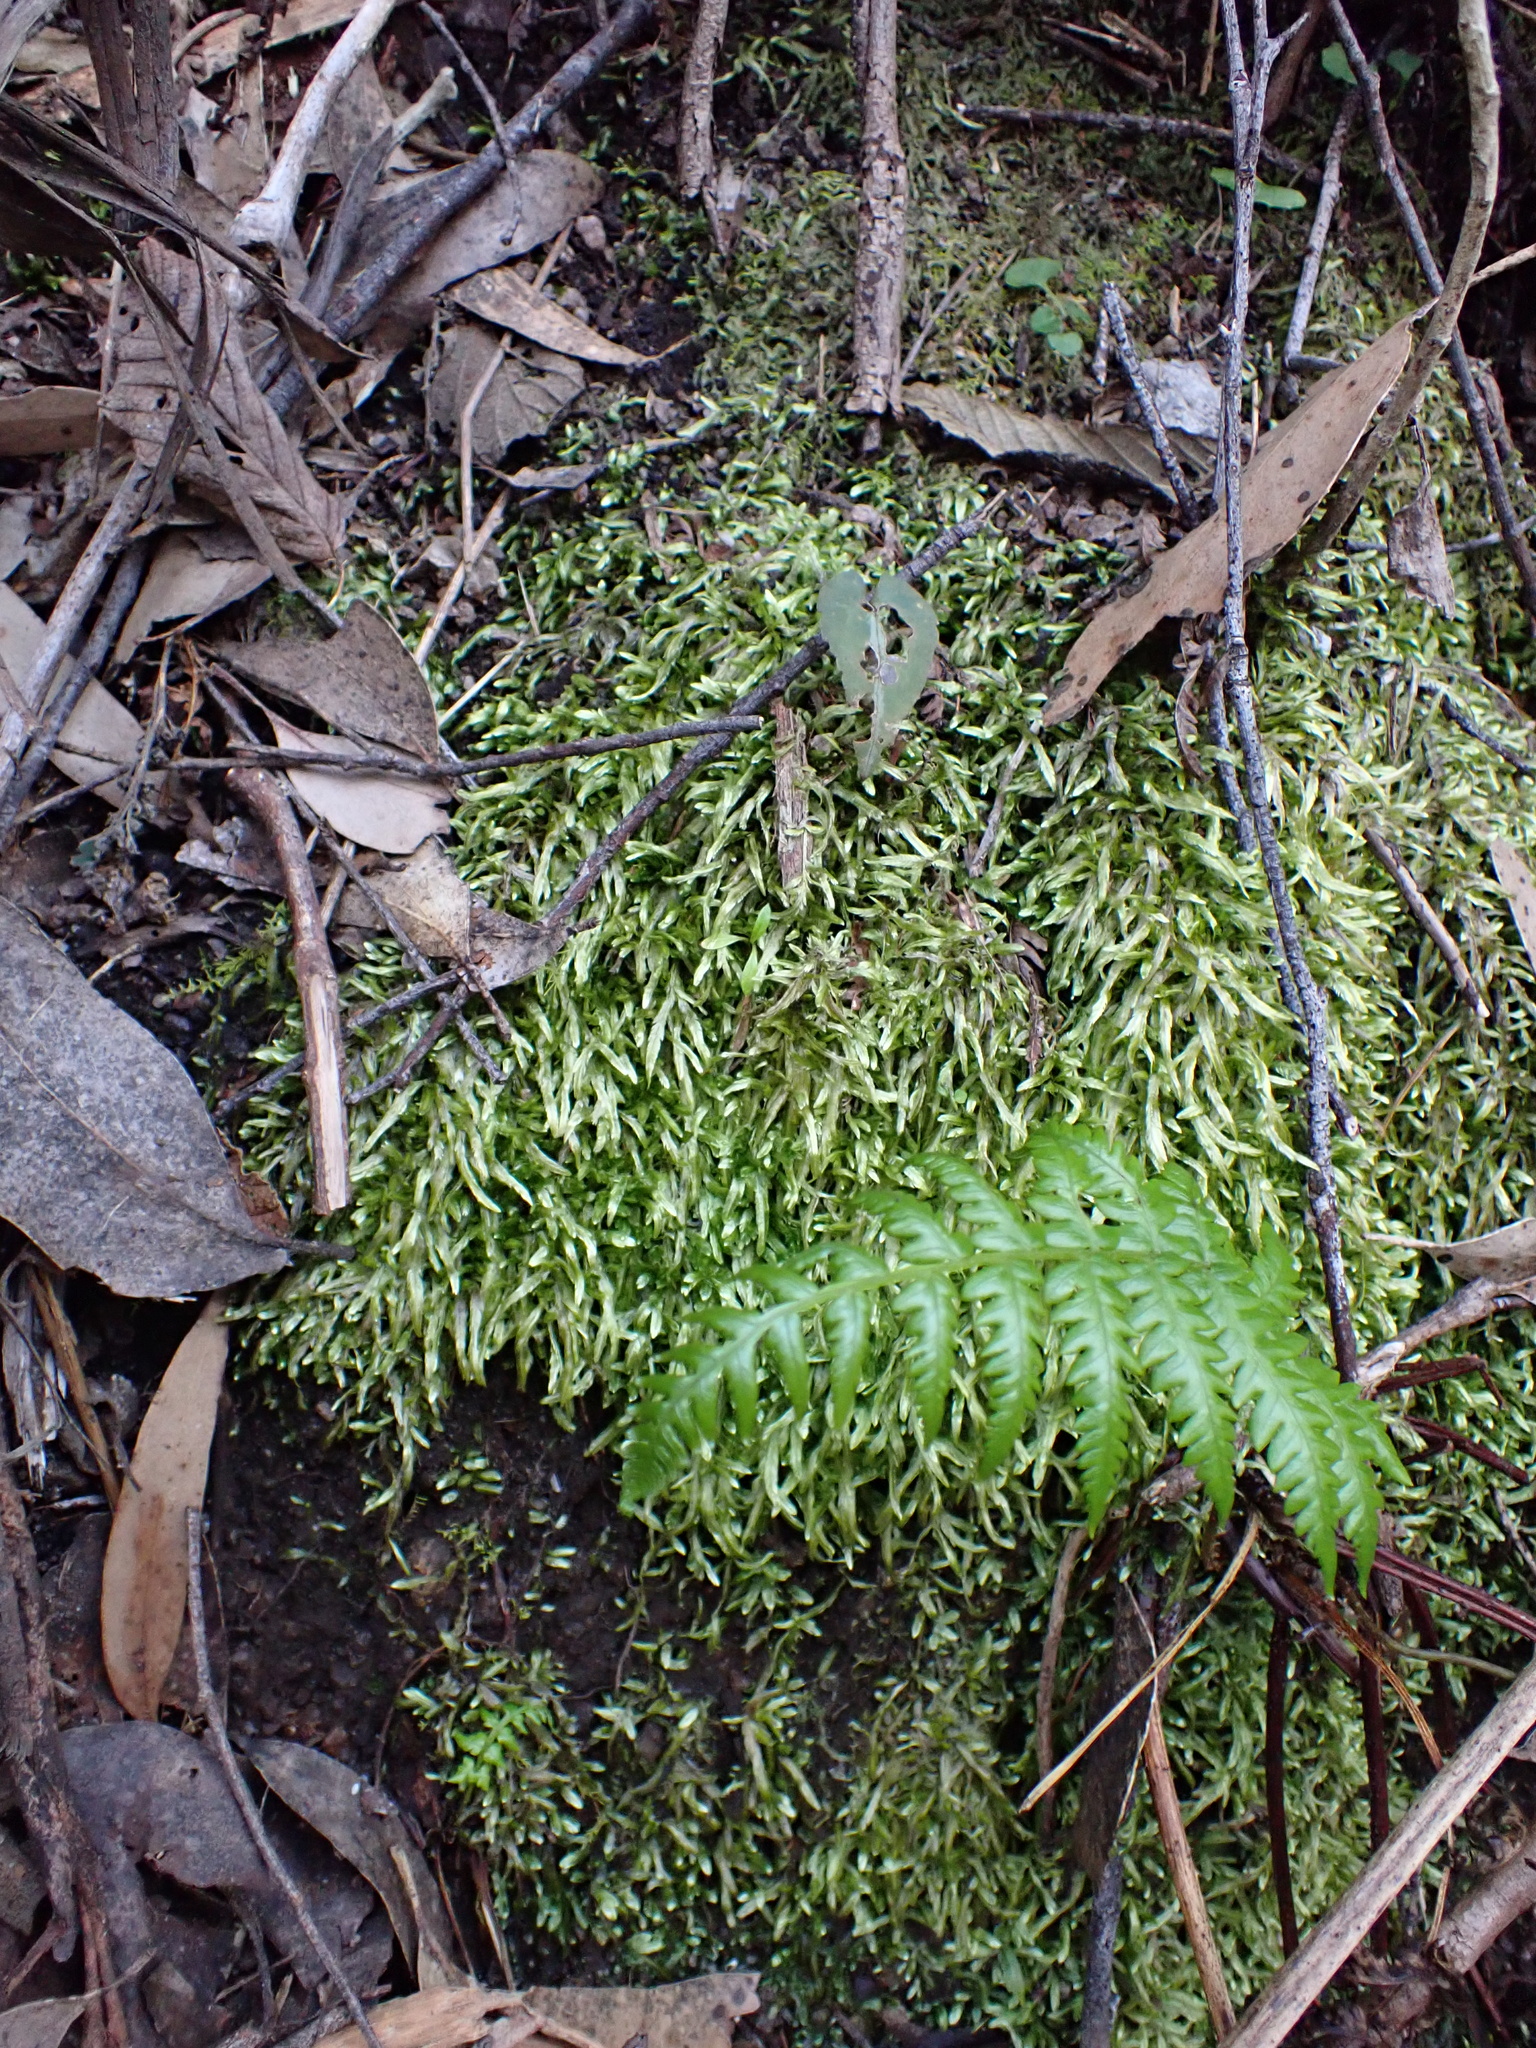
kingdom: Plantae
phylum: Bryophyta
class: Bryopsida
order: Hypnales
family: Catagoniaceae
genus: Catagonium
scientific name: Catagonium nitens
